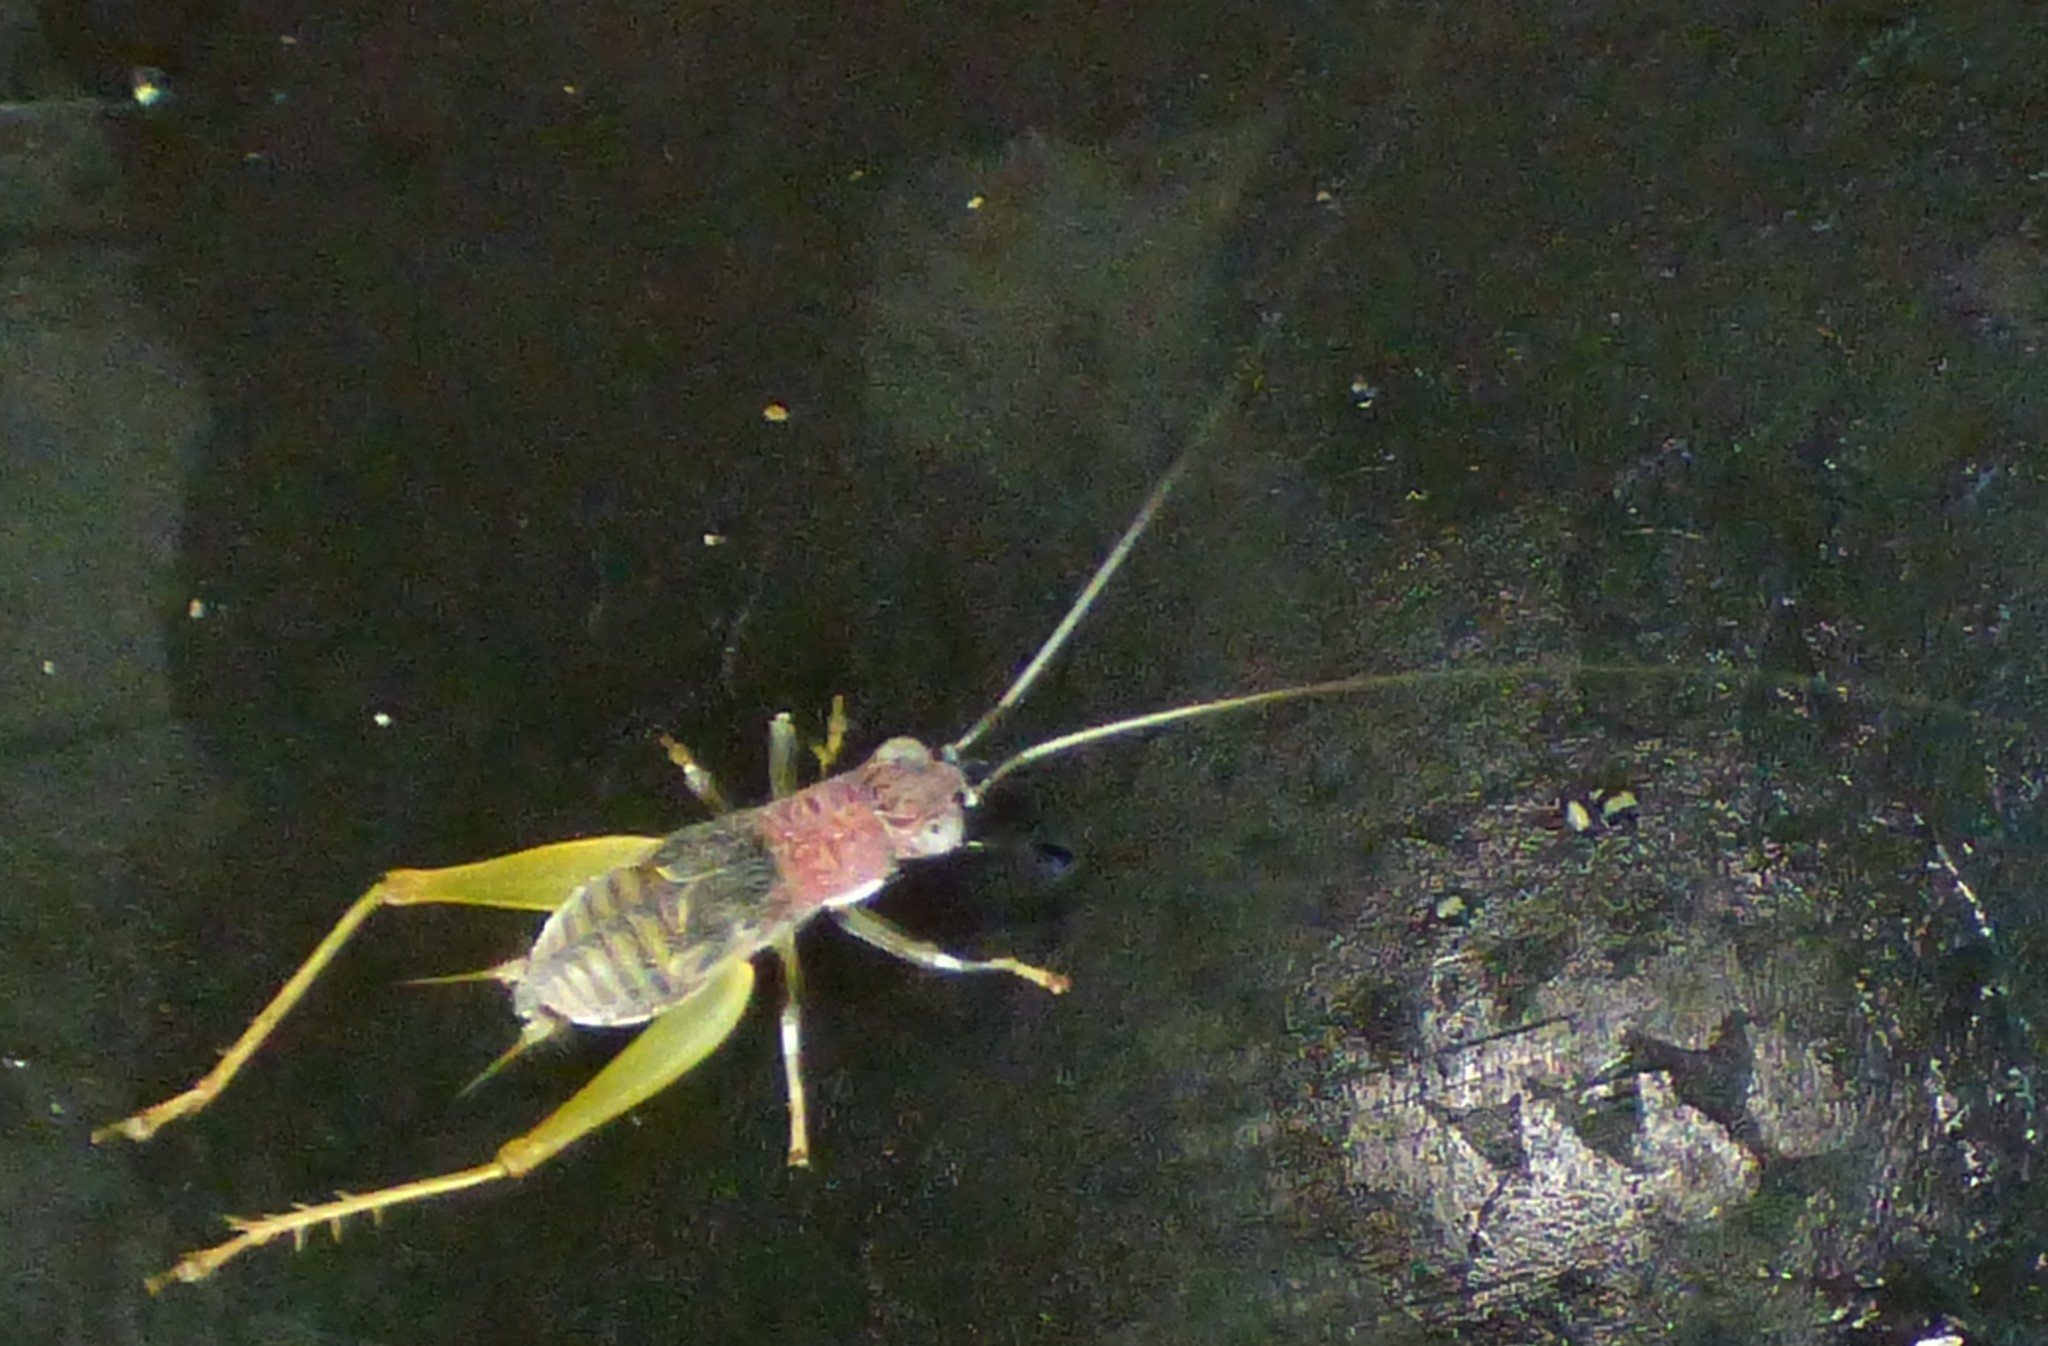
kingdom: Animalia
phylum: Arthropoda
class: Insecta
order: Orthoptera
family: Trigonidiidae
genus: Phyllopalpus
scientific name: Phyllopalpus pulchellus
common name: Handsome trig
